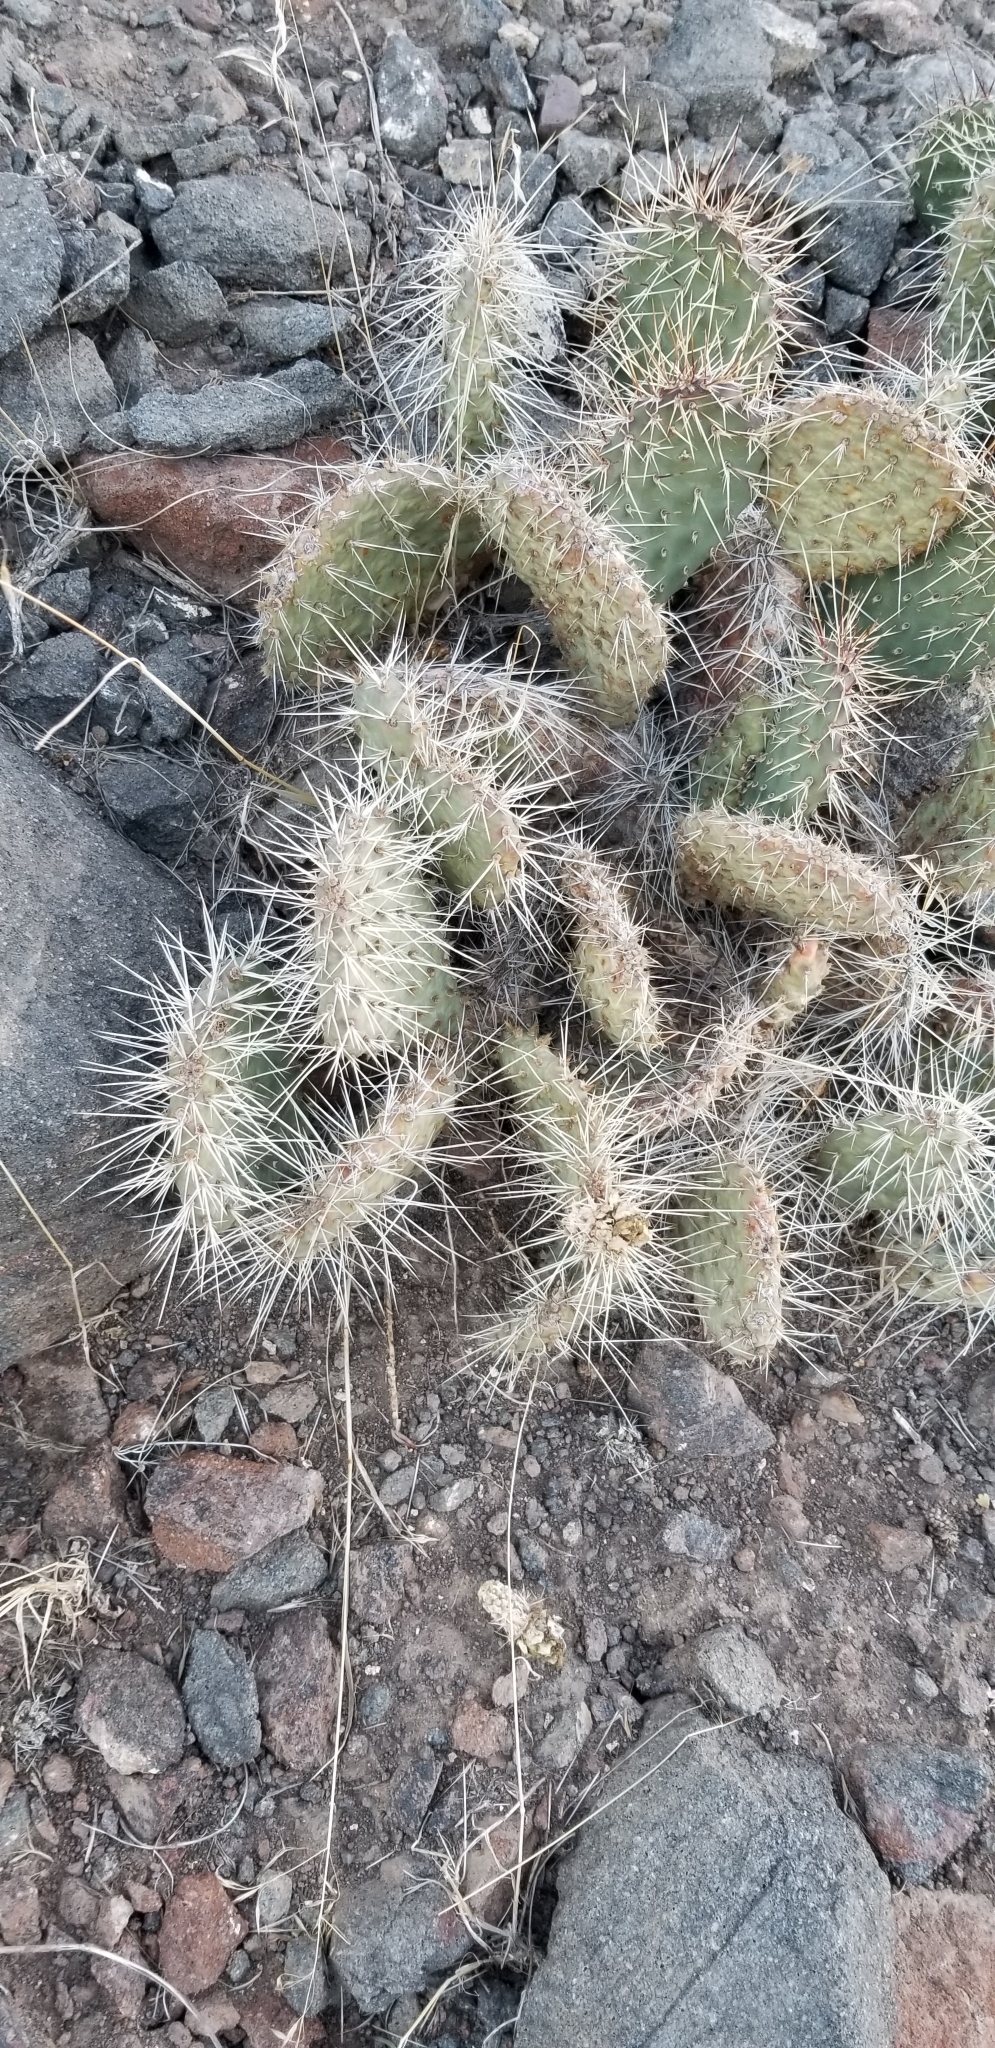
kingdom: Plantae
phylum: Tracheophyta
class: Magnoliopsida
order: Caryophyllales
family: Cactaceae
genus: Opuntia
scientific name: Opuntia polyacantha
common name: Plains prickly-pear
